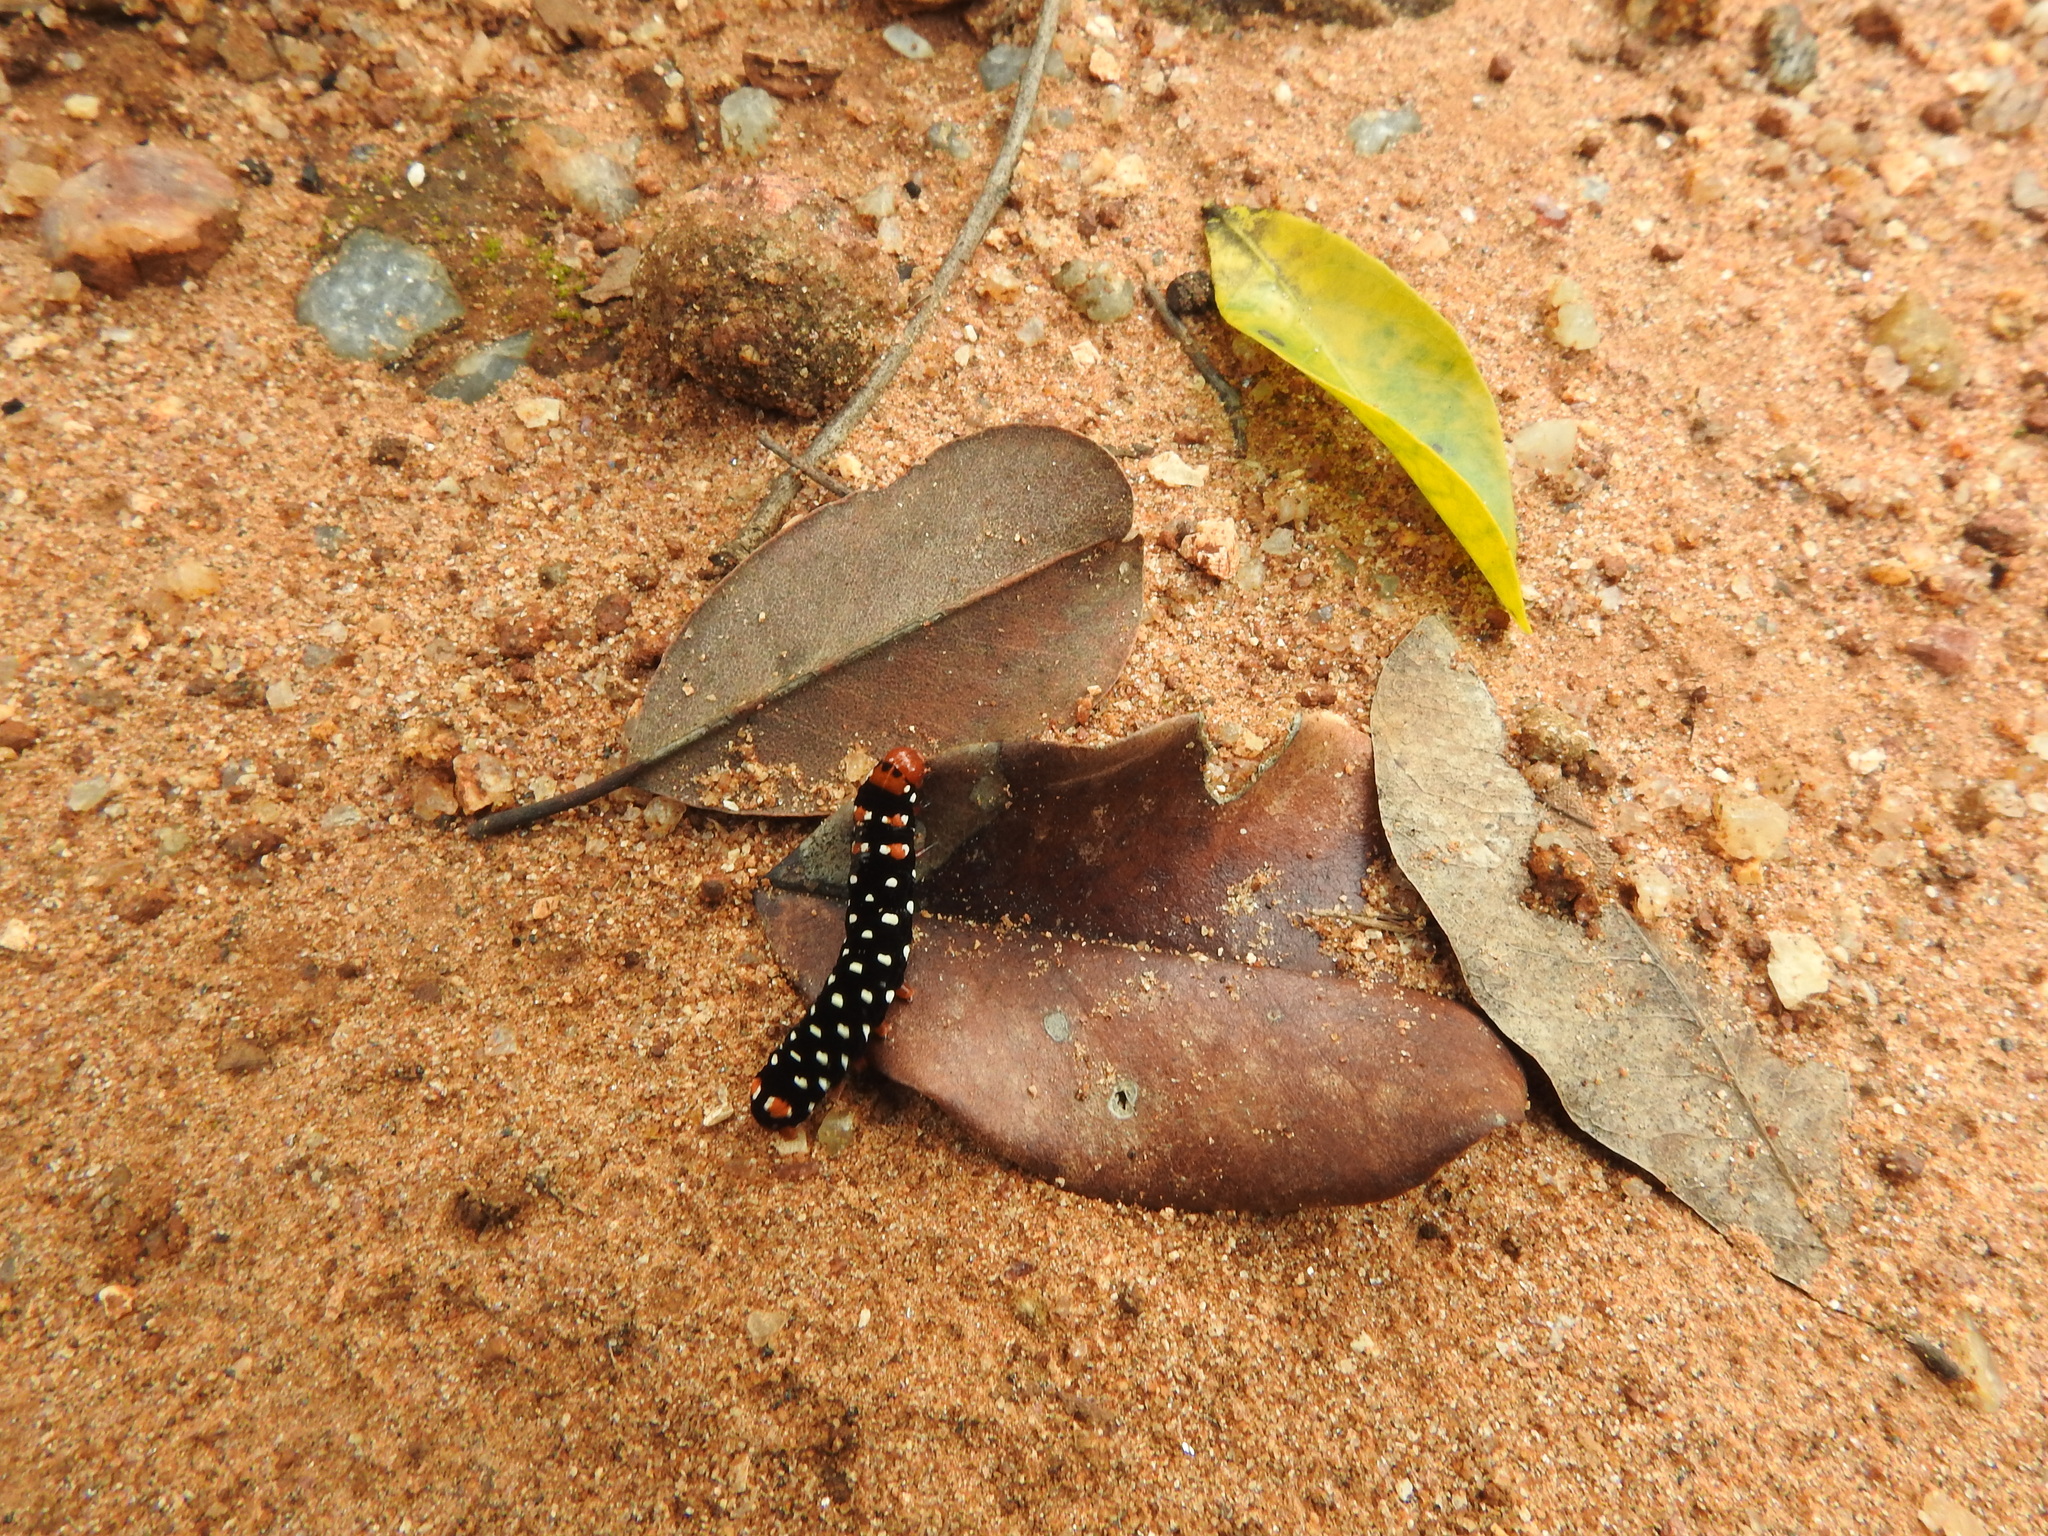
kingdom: Animalia
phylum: Arthropoda
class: Insecta
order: Lepidoptera
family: Noctuidae
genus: Polytela
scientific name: Polytela gloriosae
